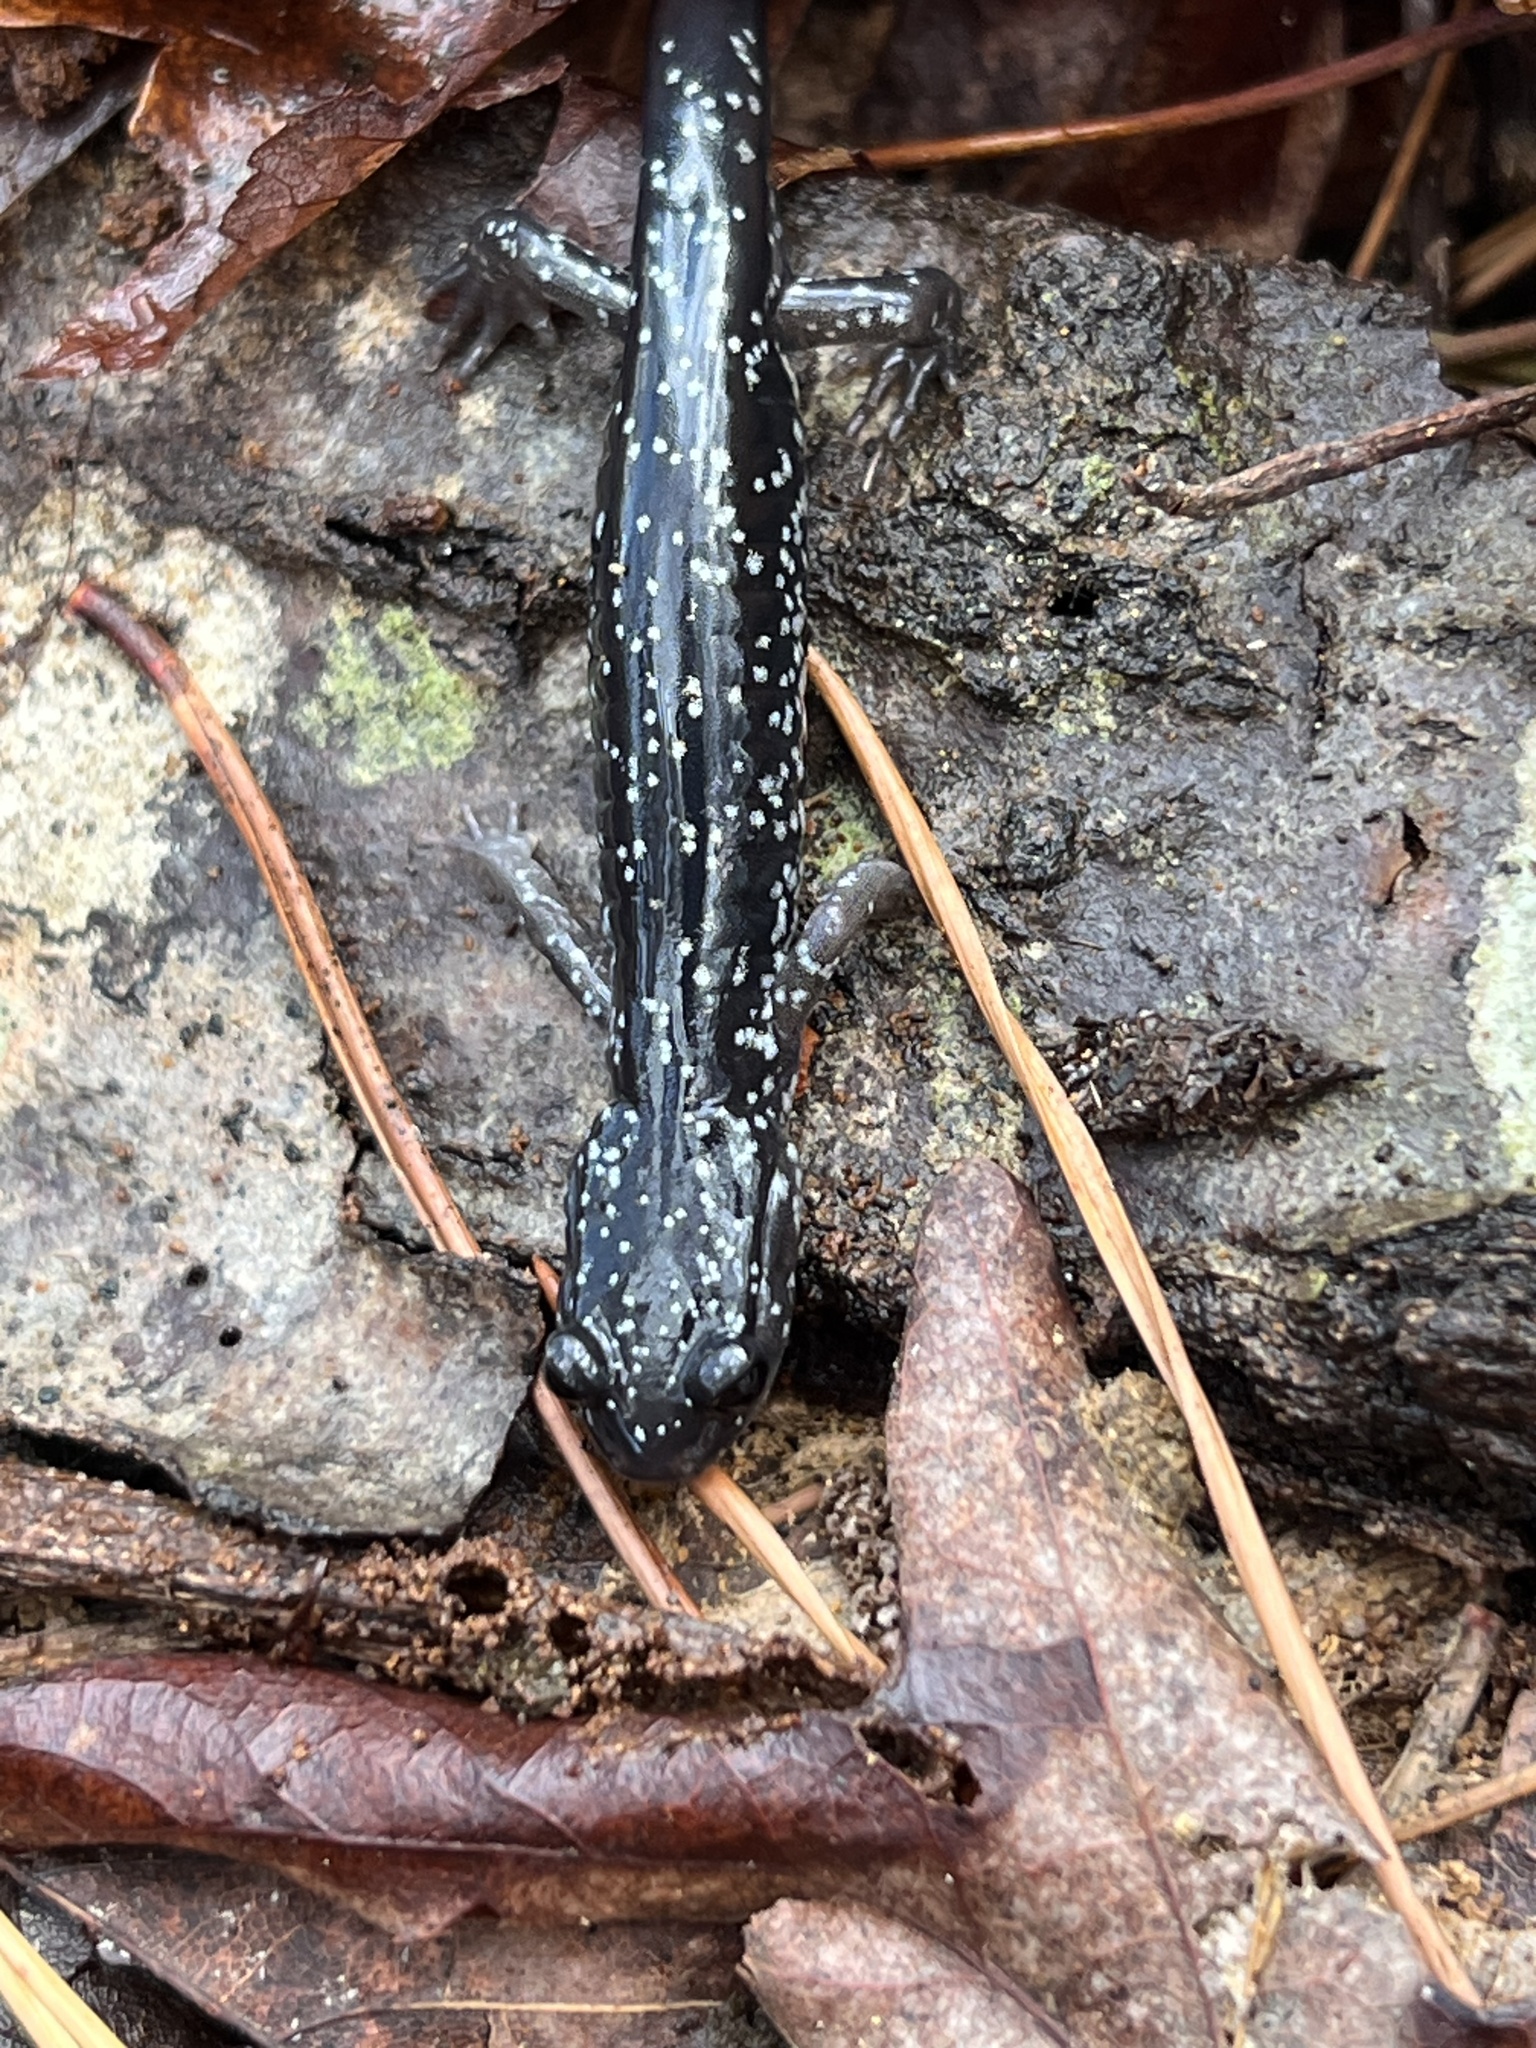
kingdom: Animalia
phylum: Chordata
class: Amphibia
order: Caudata
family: Plethodontidae
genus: Plethodon
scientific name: Plethodon cylindraceus
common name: White-spotted slimy salamander
